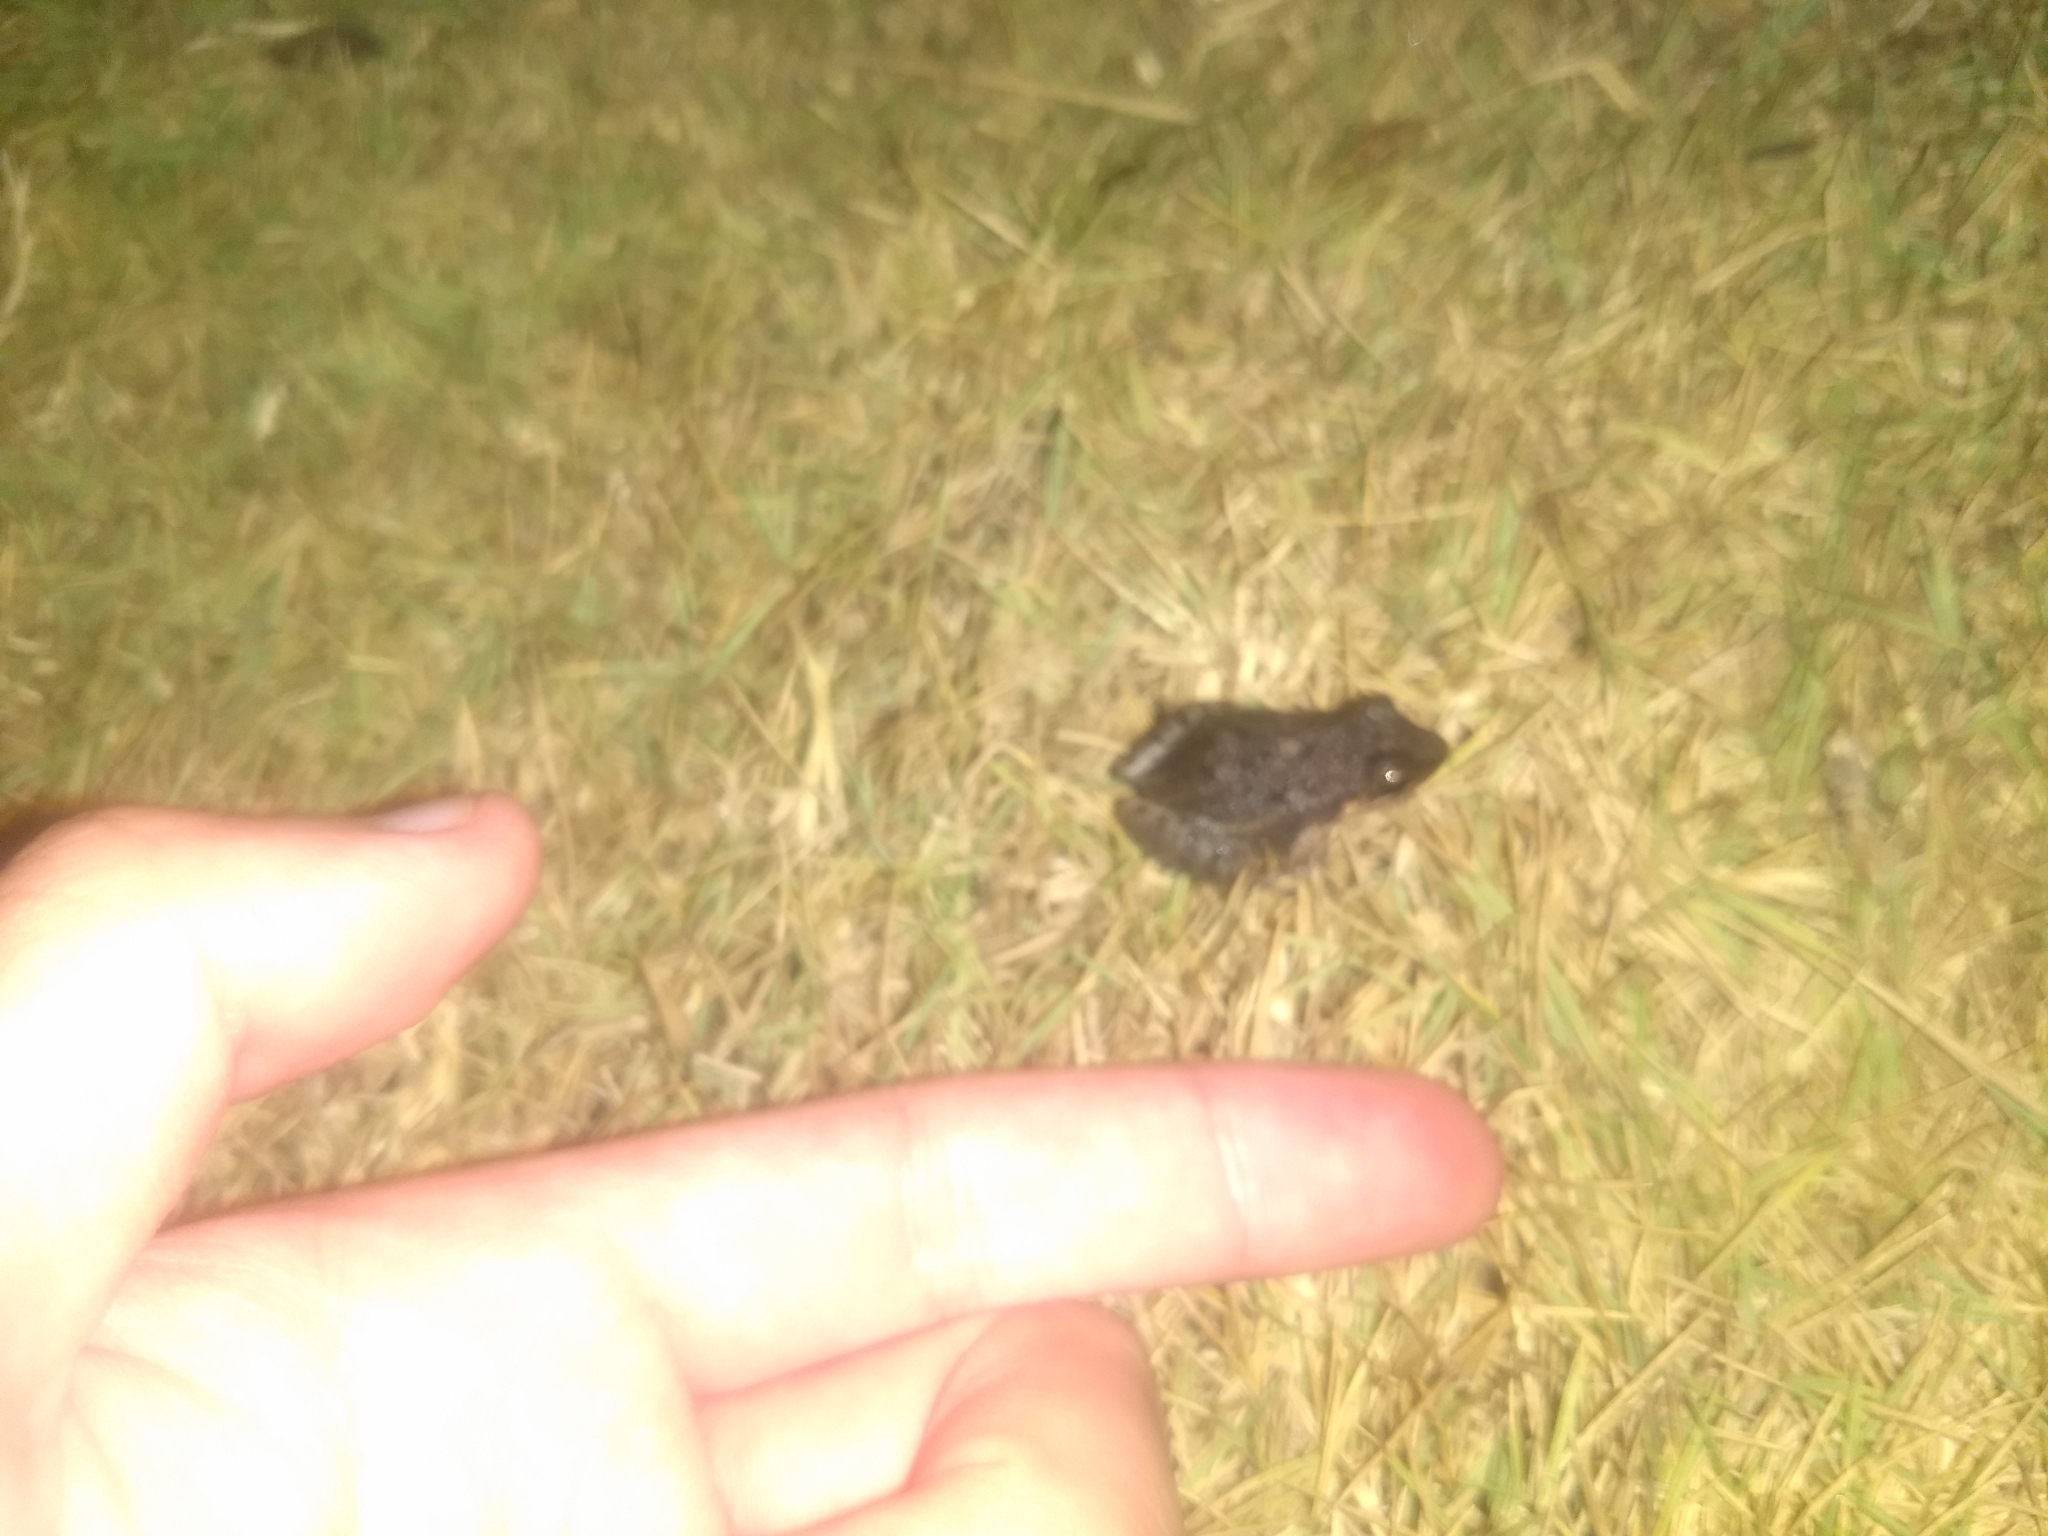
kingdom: Animalia
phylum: Chordata
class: Amphibia
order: Anura
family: Leptodactylidae
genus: Leptodactylus
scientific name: Leptodactylus fragilis
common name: Mexican white-lipped frog
